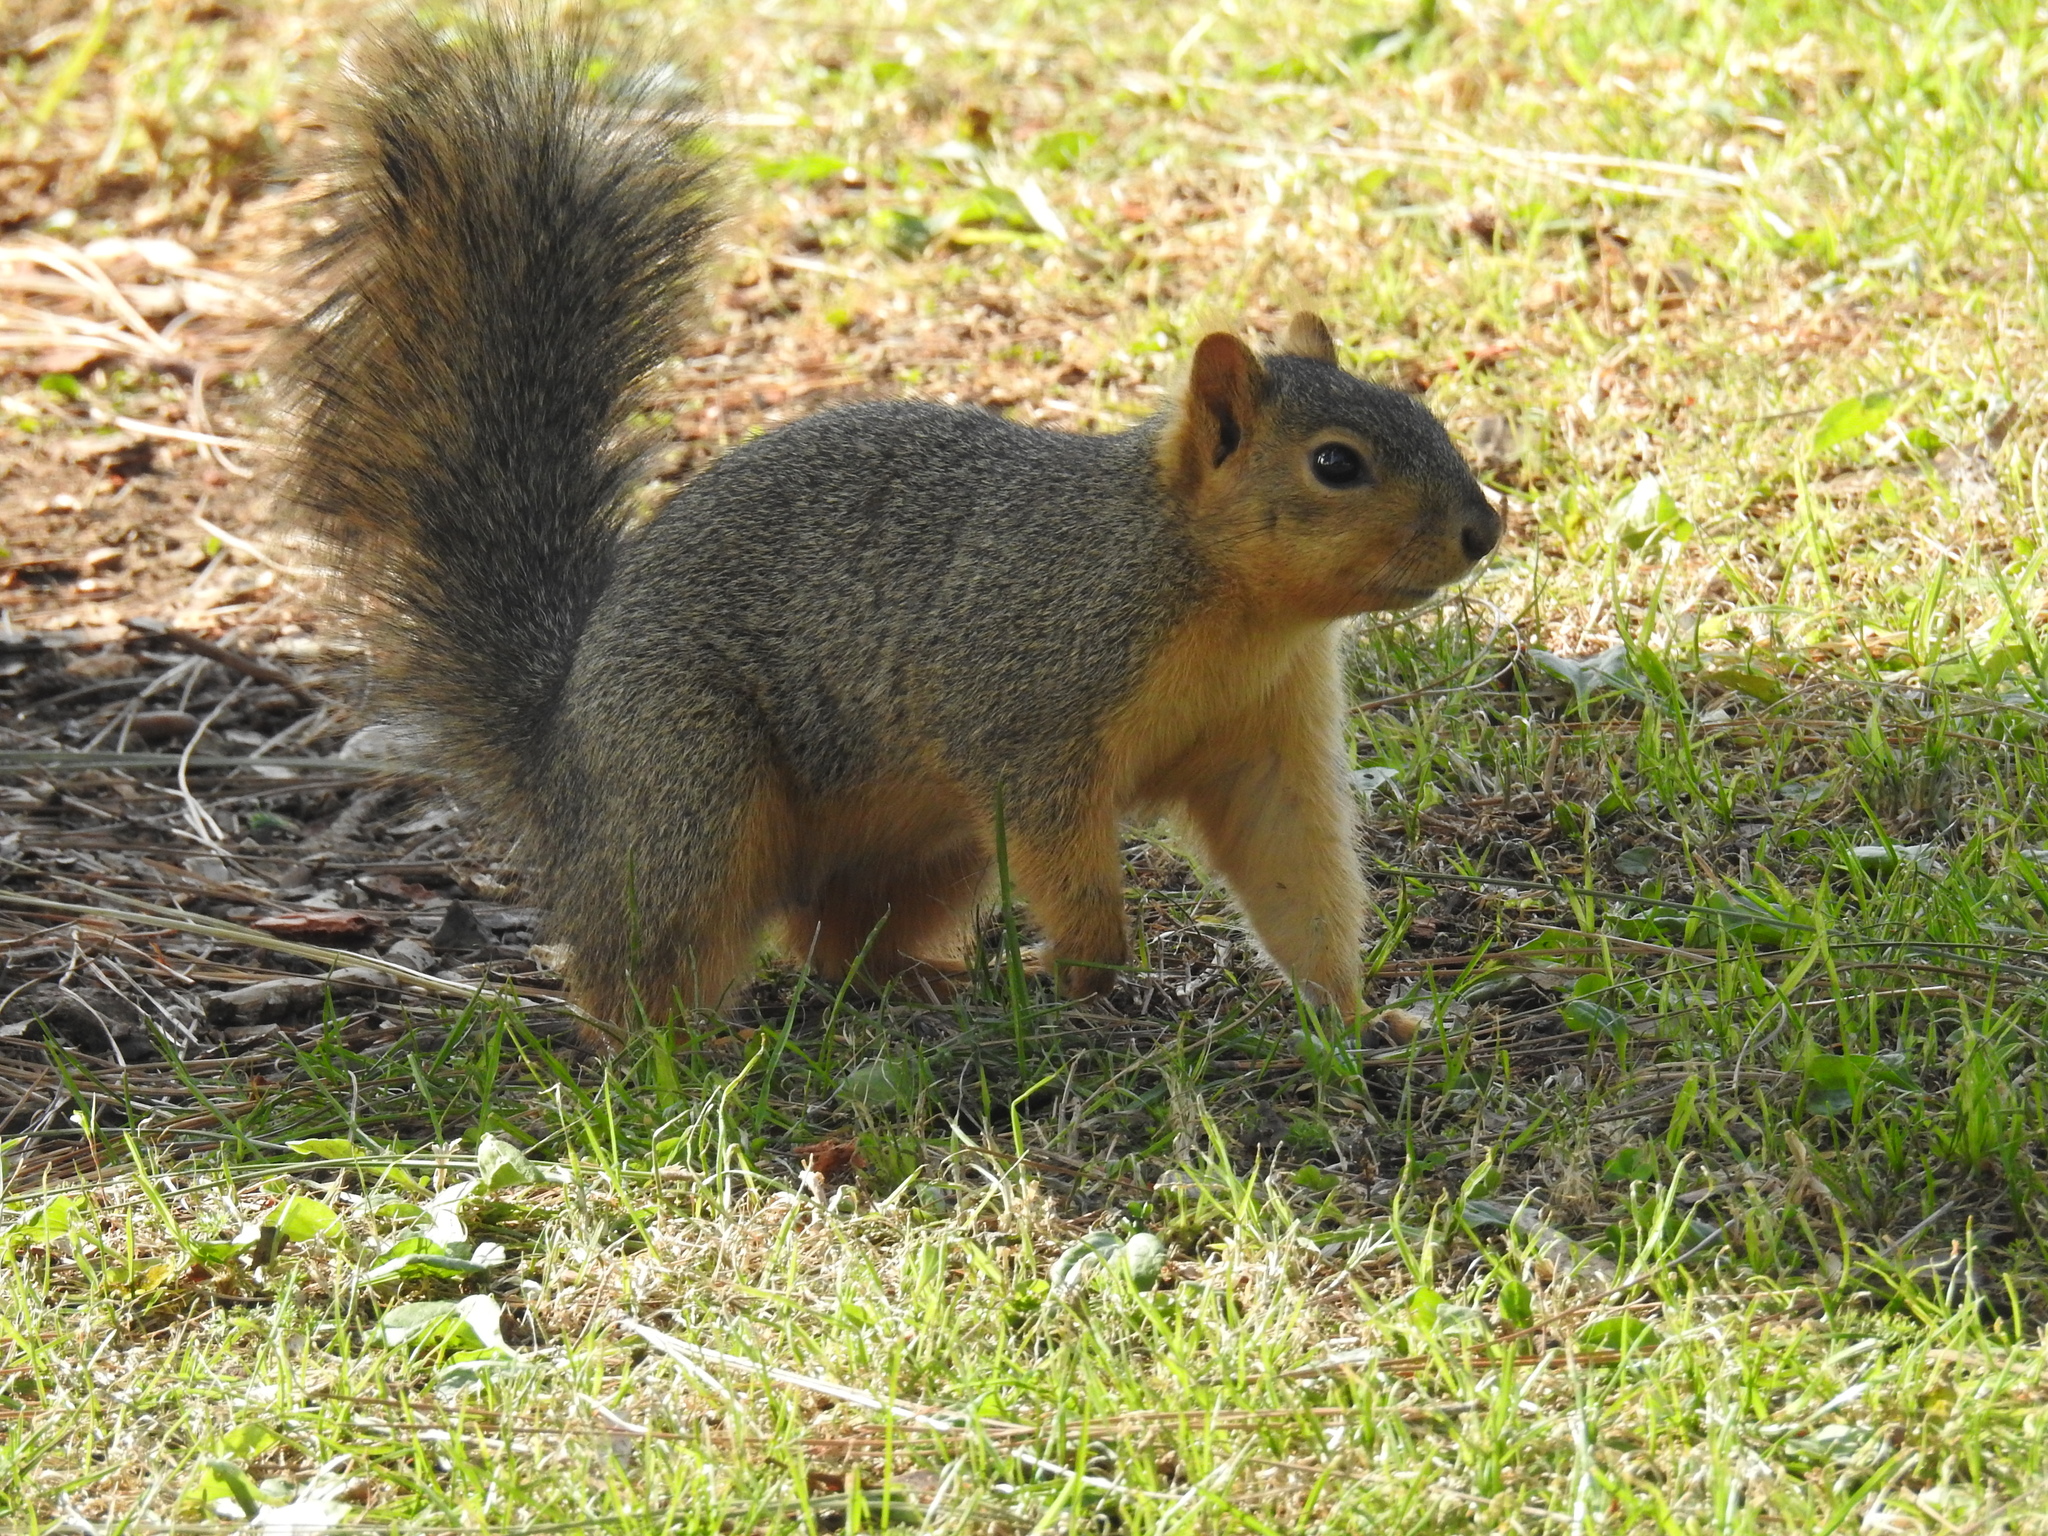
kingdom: Animalia
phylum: Chordata
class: Mammalia
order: Rodentia
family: Sciuridae
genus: Sciurus
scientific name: Sciurus niger
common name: Fox squirrel
